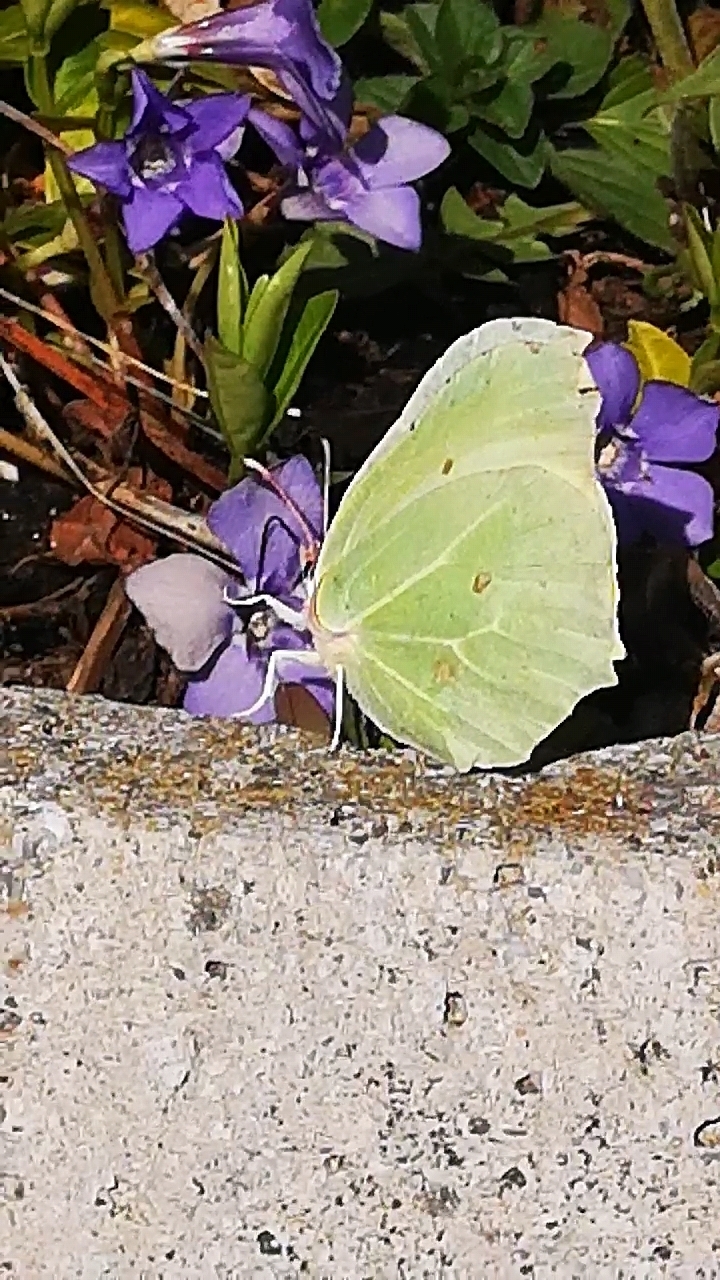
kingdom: Animalia
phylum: Arthropoda
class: Insecta
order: Lepidoptera
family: Pieridae
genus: Gonepteryx
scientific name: Gonepteryx rhamni
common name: Brimstone
